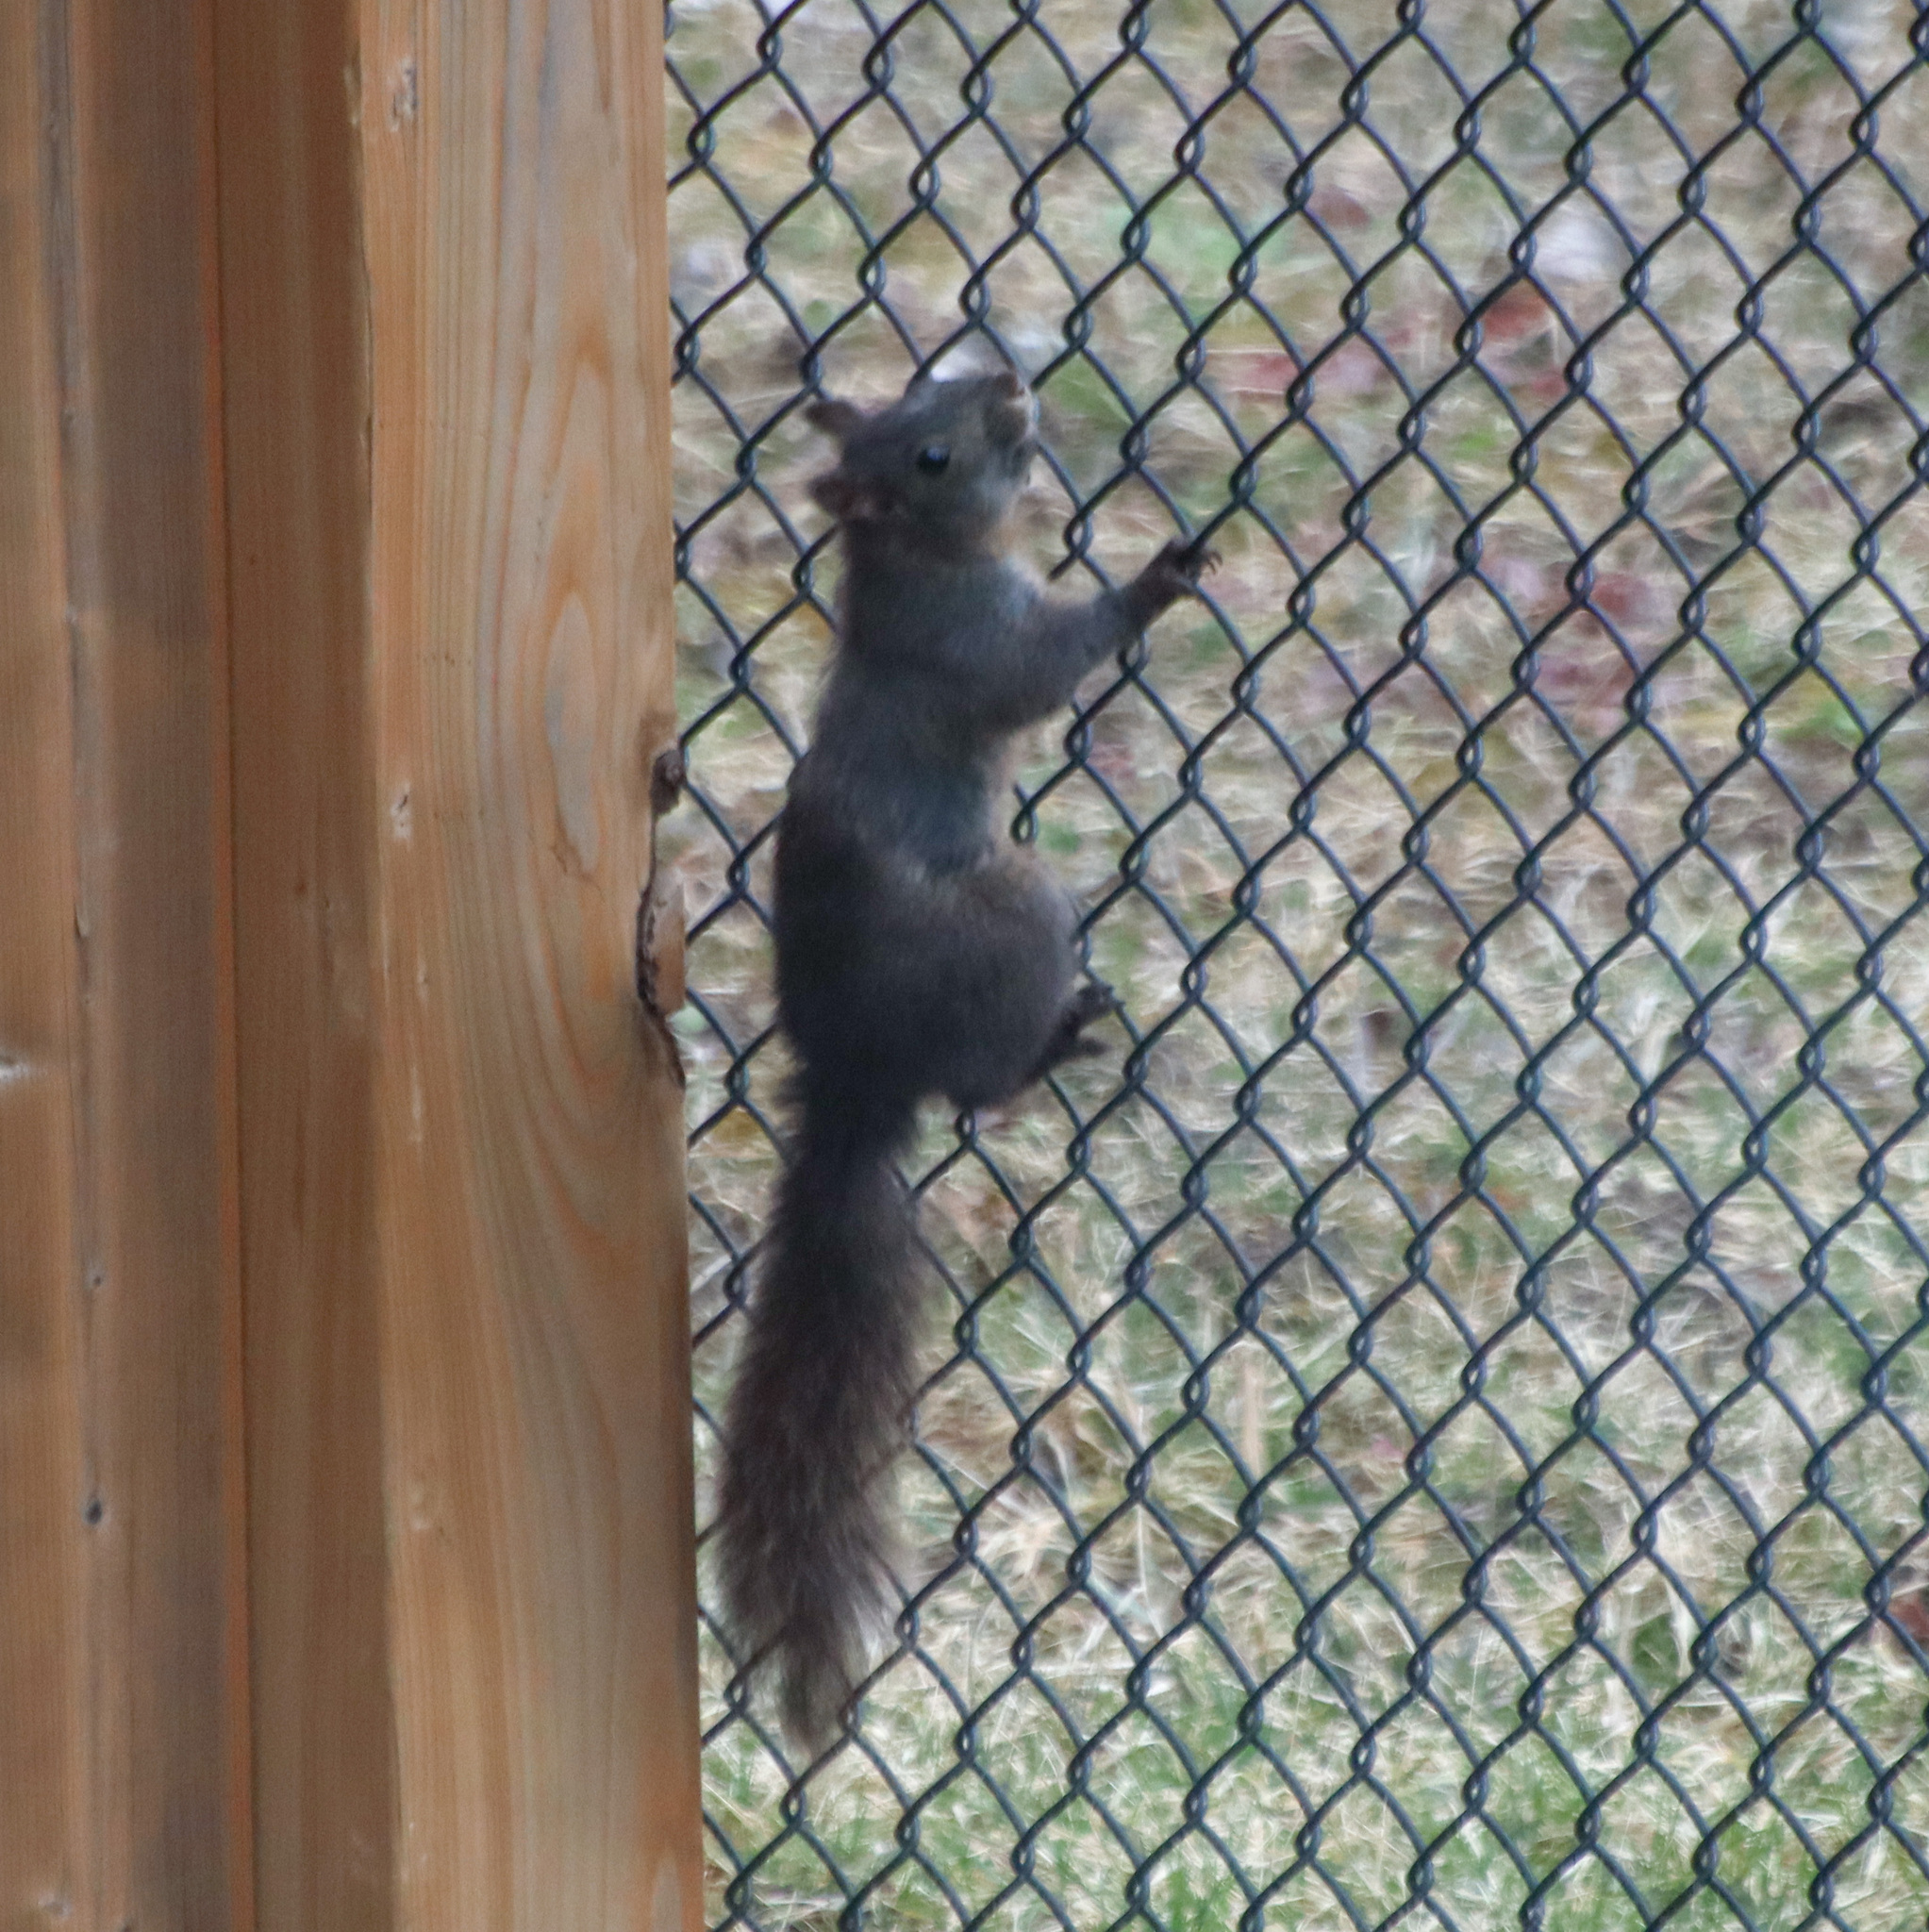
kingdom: Animalia
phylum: Chordata
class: Mammalia
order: Rodentia
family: Sciuridae
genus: Sciurus
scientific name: Sciurus carolinensis
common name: Eastern gray squirrel
